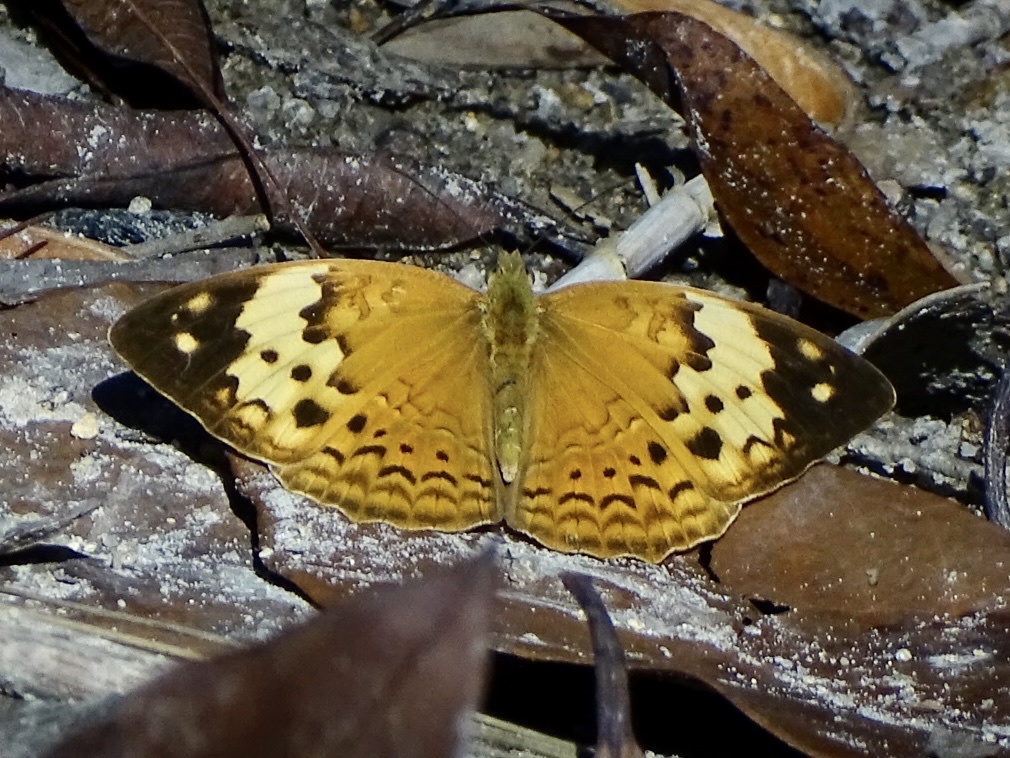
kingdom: Animalia
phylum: Arthropoda
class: Insecta
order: Lepidoptera
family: Nymphalidae
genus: Cupha
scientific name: Cupha erymanthis
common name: Rustic
